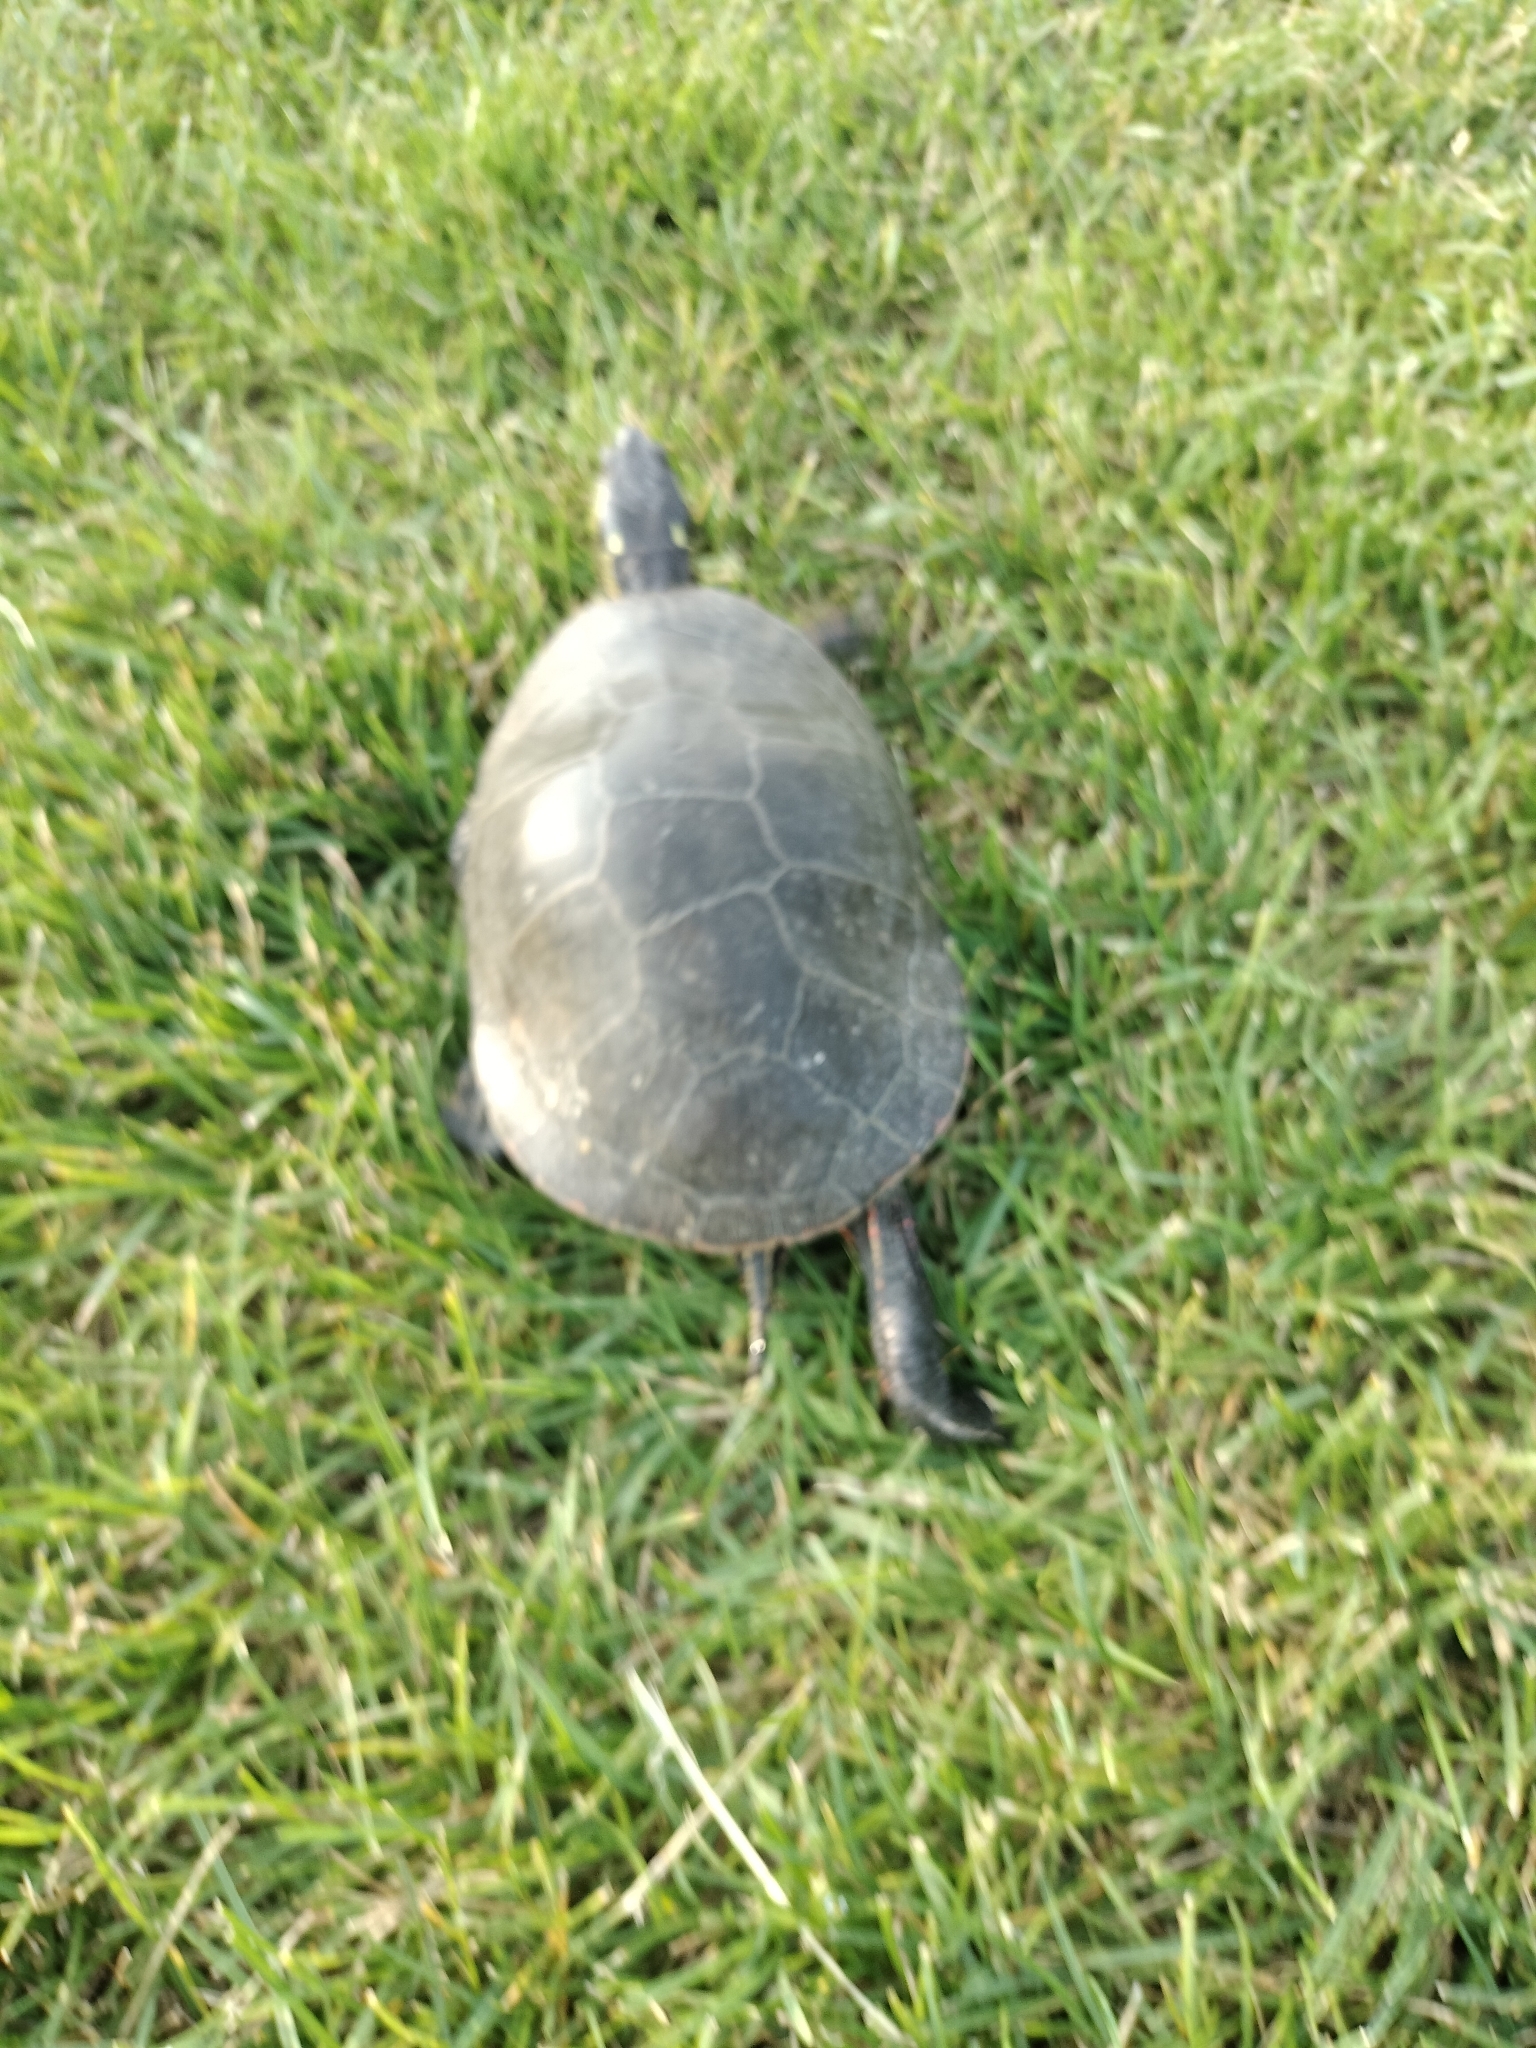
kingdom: Animalia
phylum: Chordata
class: Testudines
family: Emydidae
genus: Chrysemys
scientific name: Chrysemys picta
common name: Painted turtle
